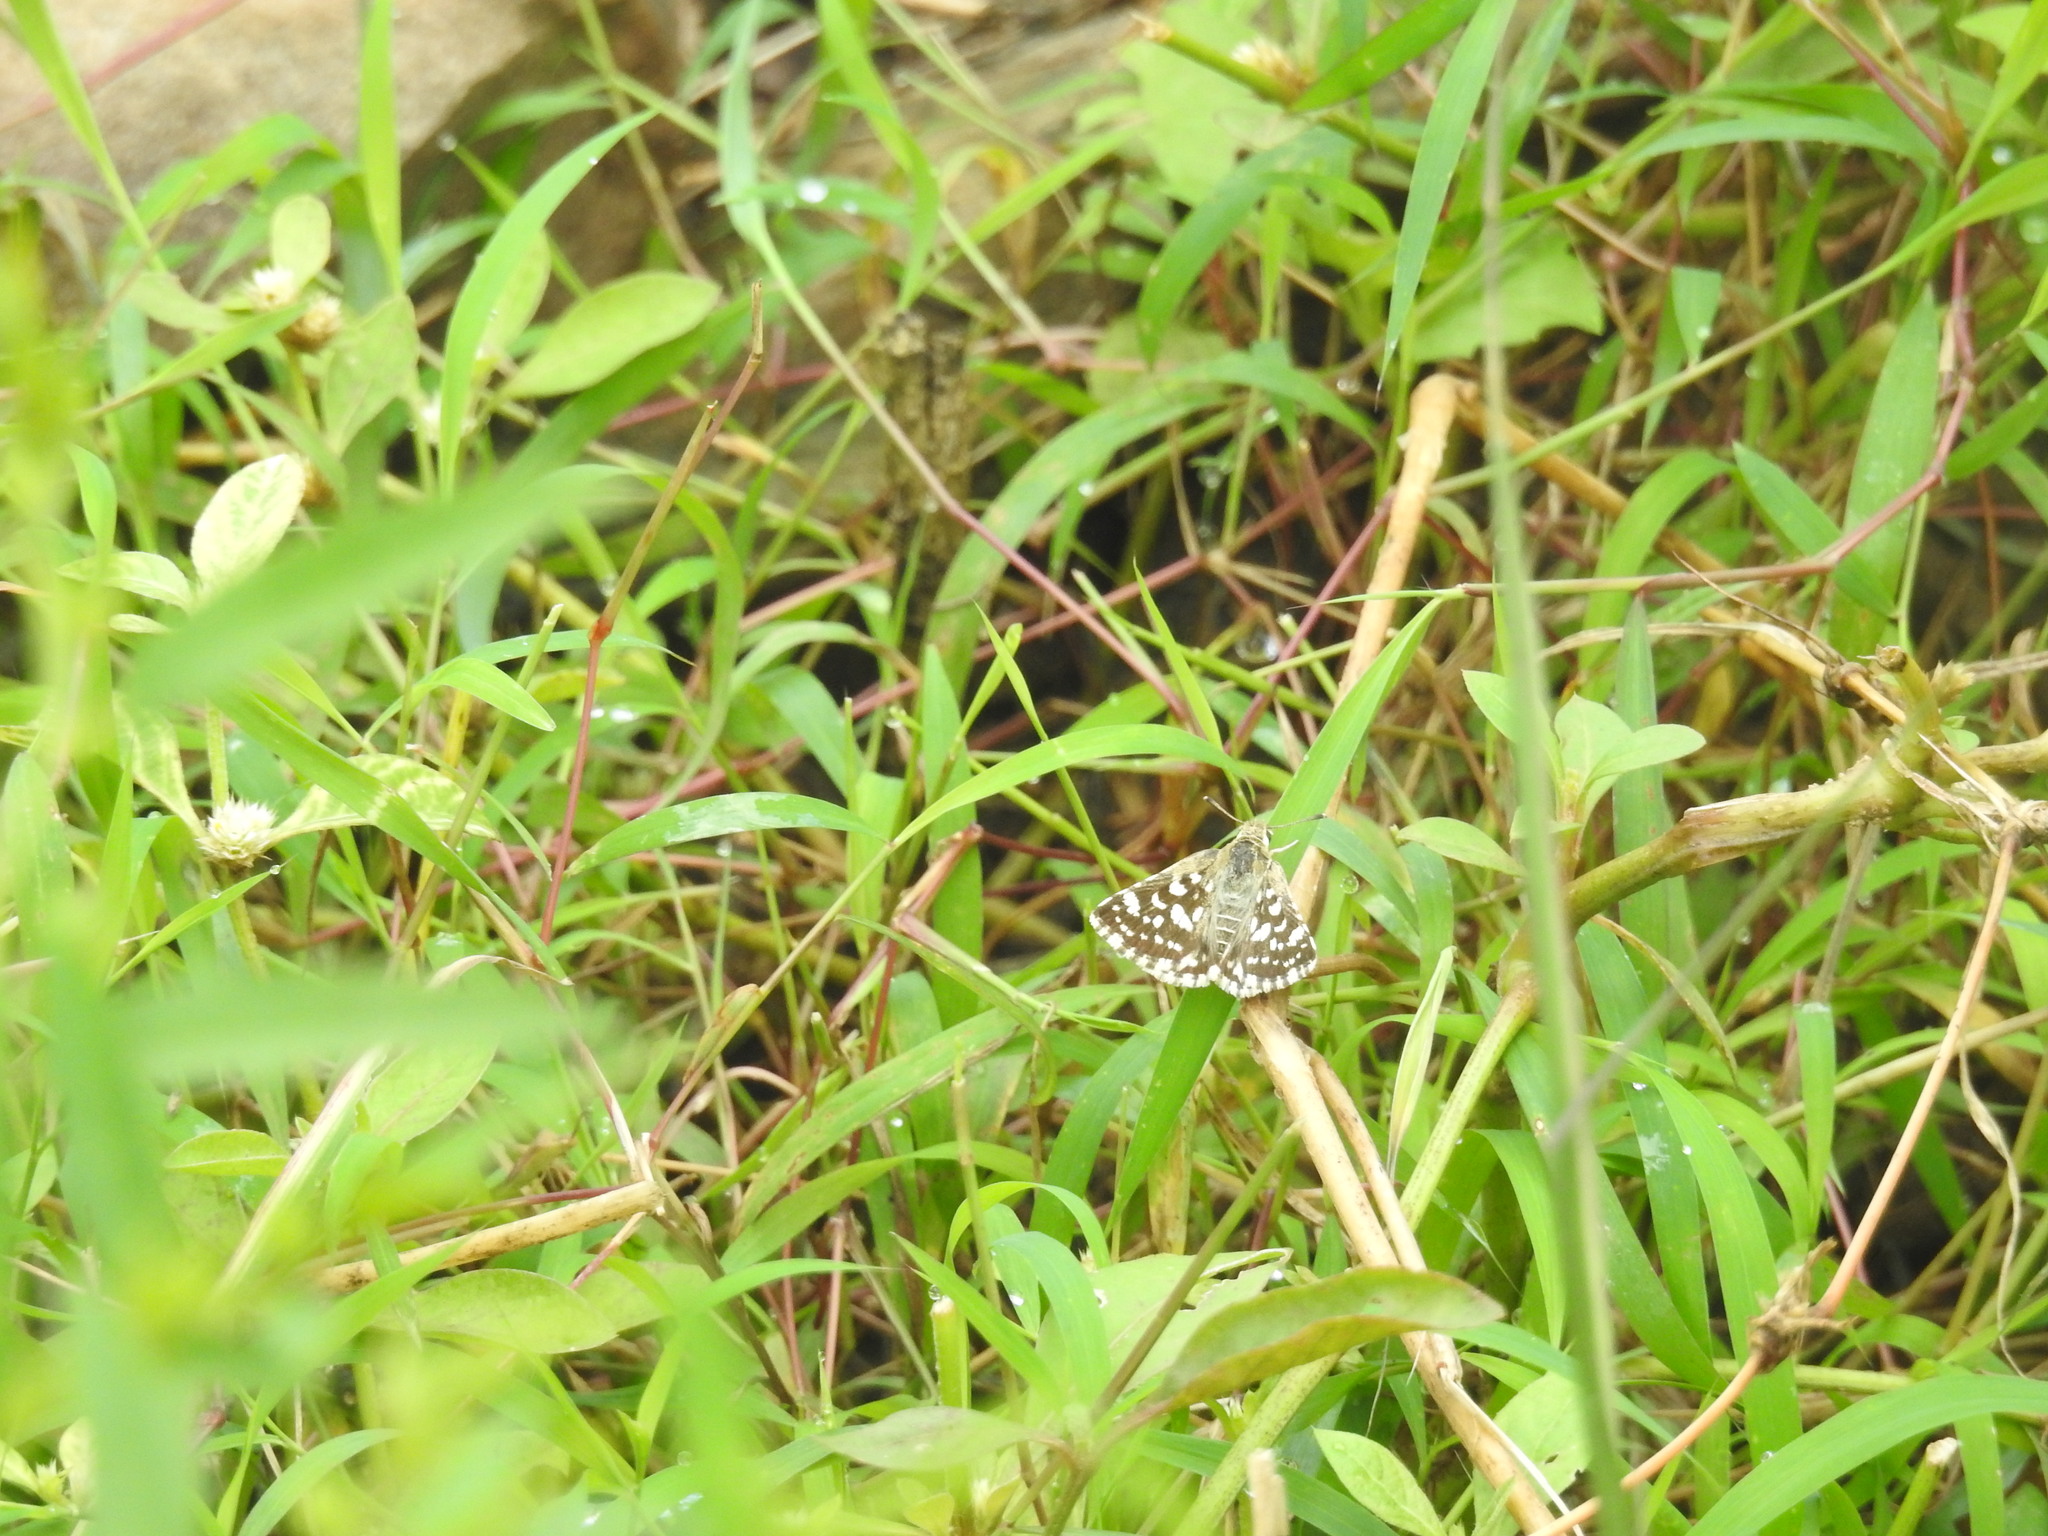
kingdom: Animalia
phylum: Arthropoda
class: Insecta
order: Lepidoptera
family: Hesperiidae
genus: Spialia
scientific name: Spialia galba
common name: Indian skipper
